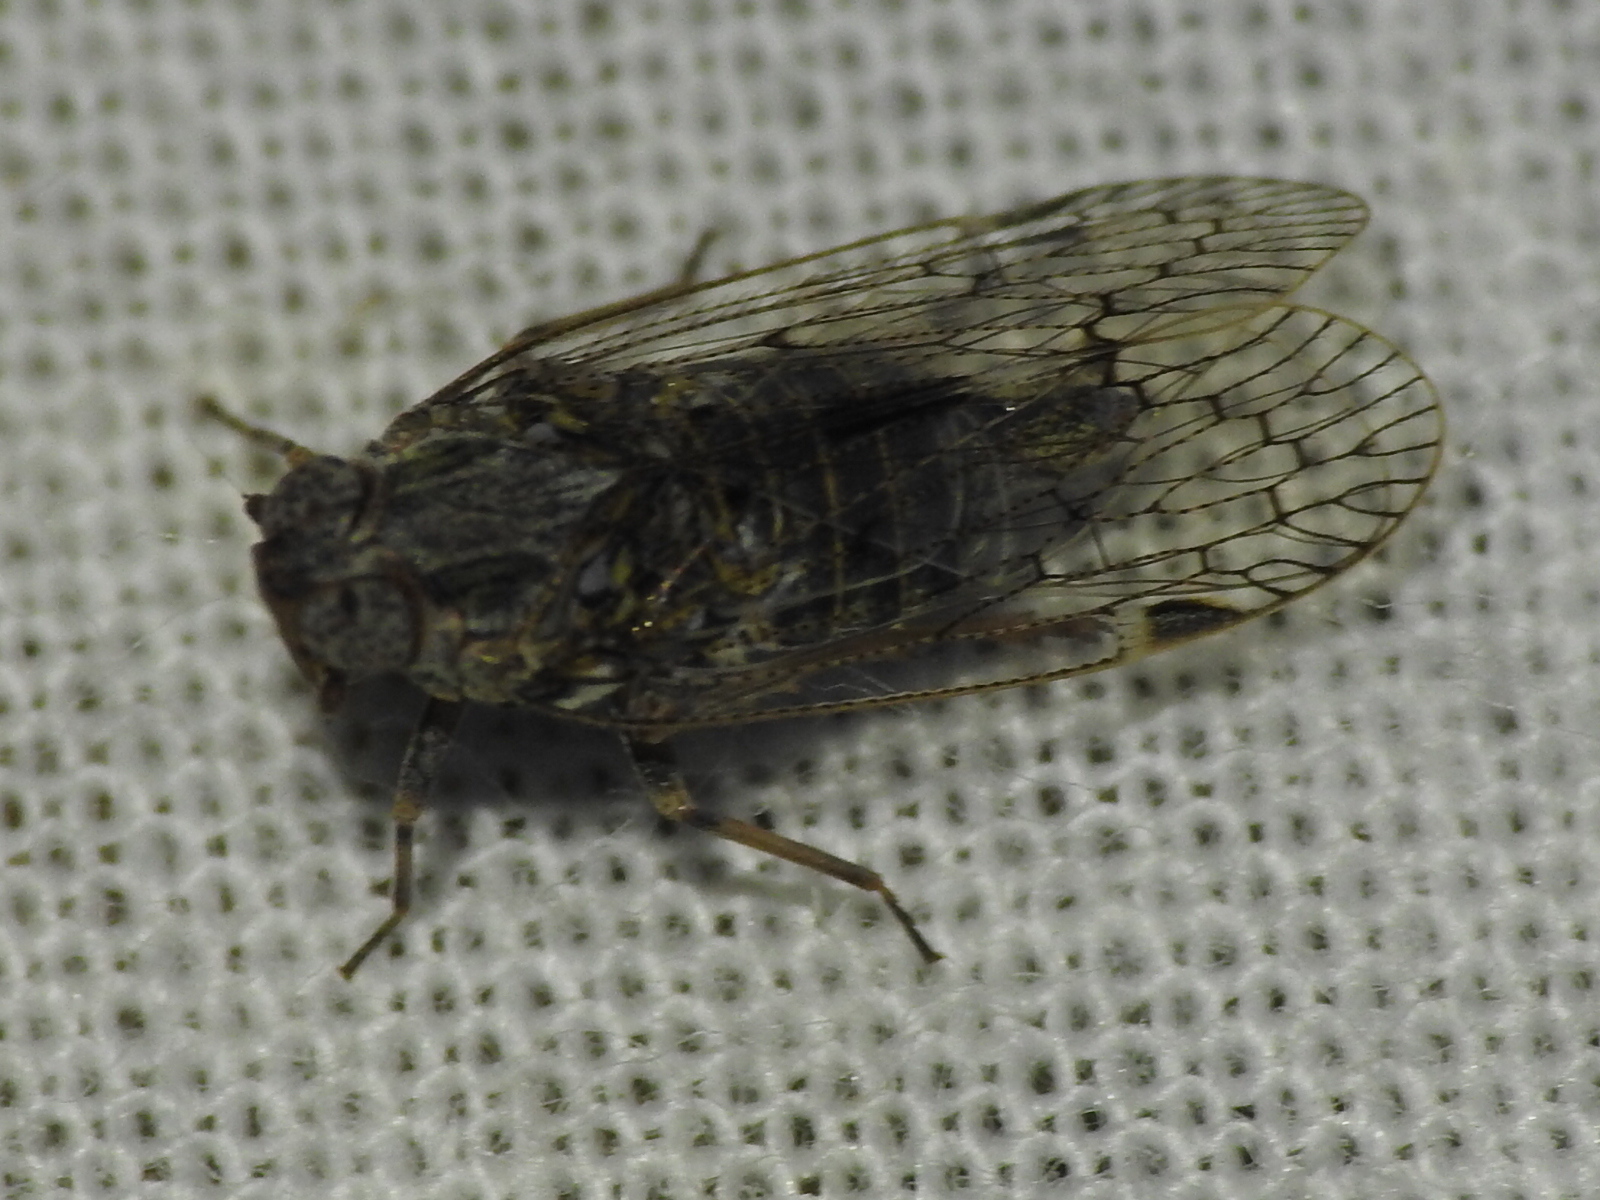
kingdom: Animalia
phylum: Arthropoda
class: Insecta
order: Hemiptera
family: Cixiidae
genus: Melanoliarus
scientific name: Melanoliarus aridus
